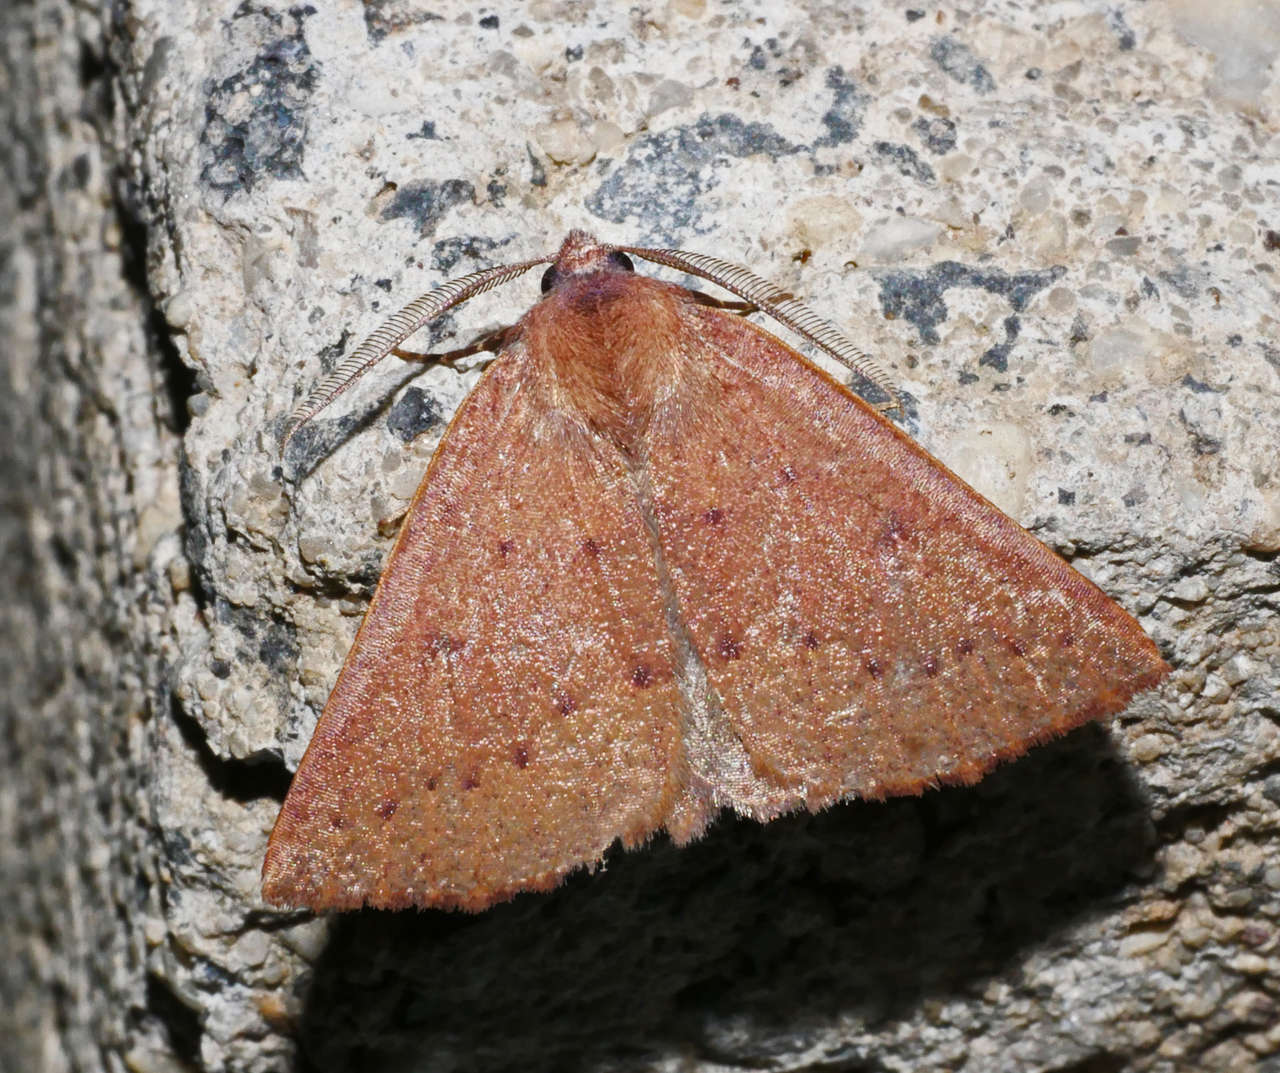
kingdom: Animalia
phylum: Arthropoda
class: Insecta
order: Lepidoptera
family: Geometridae
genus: Androchela
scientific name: Androchela milvaria
